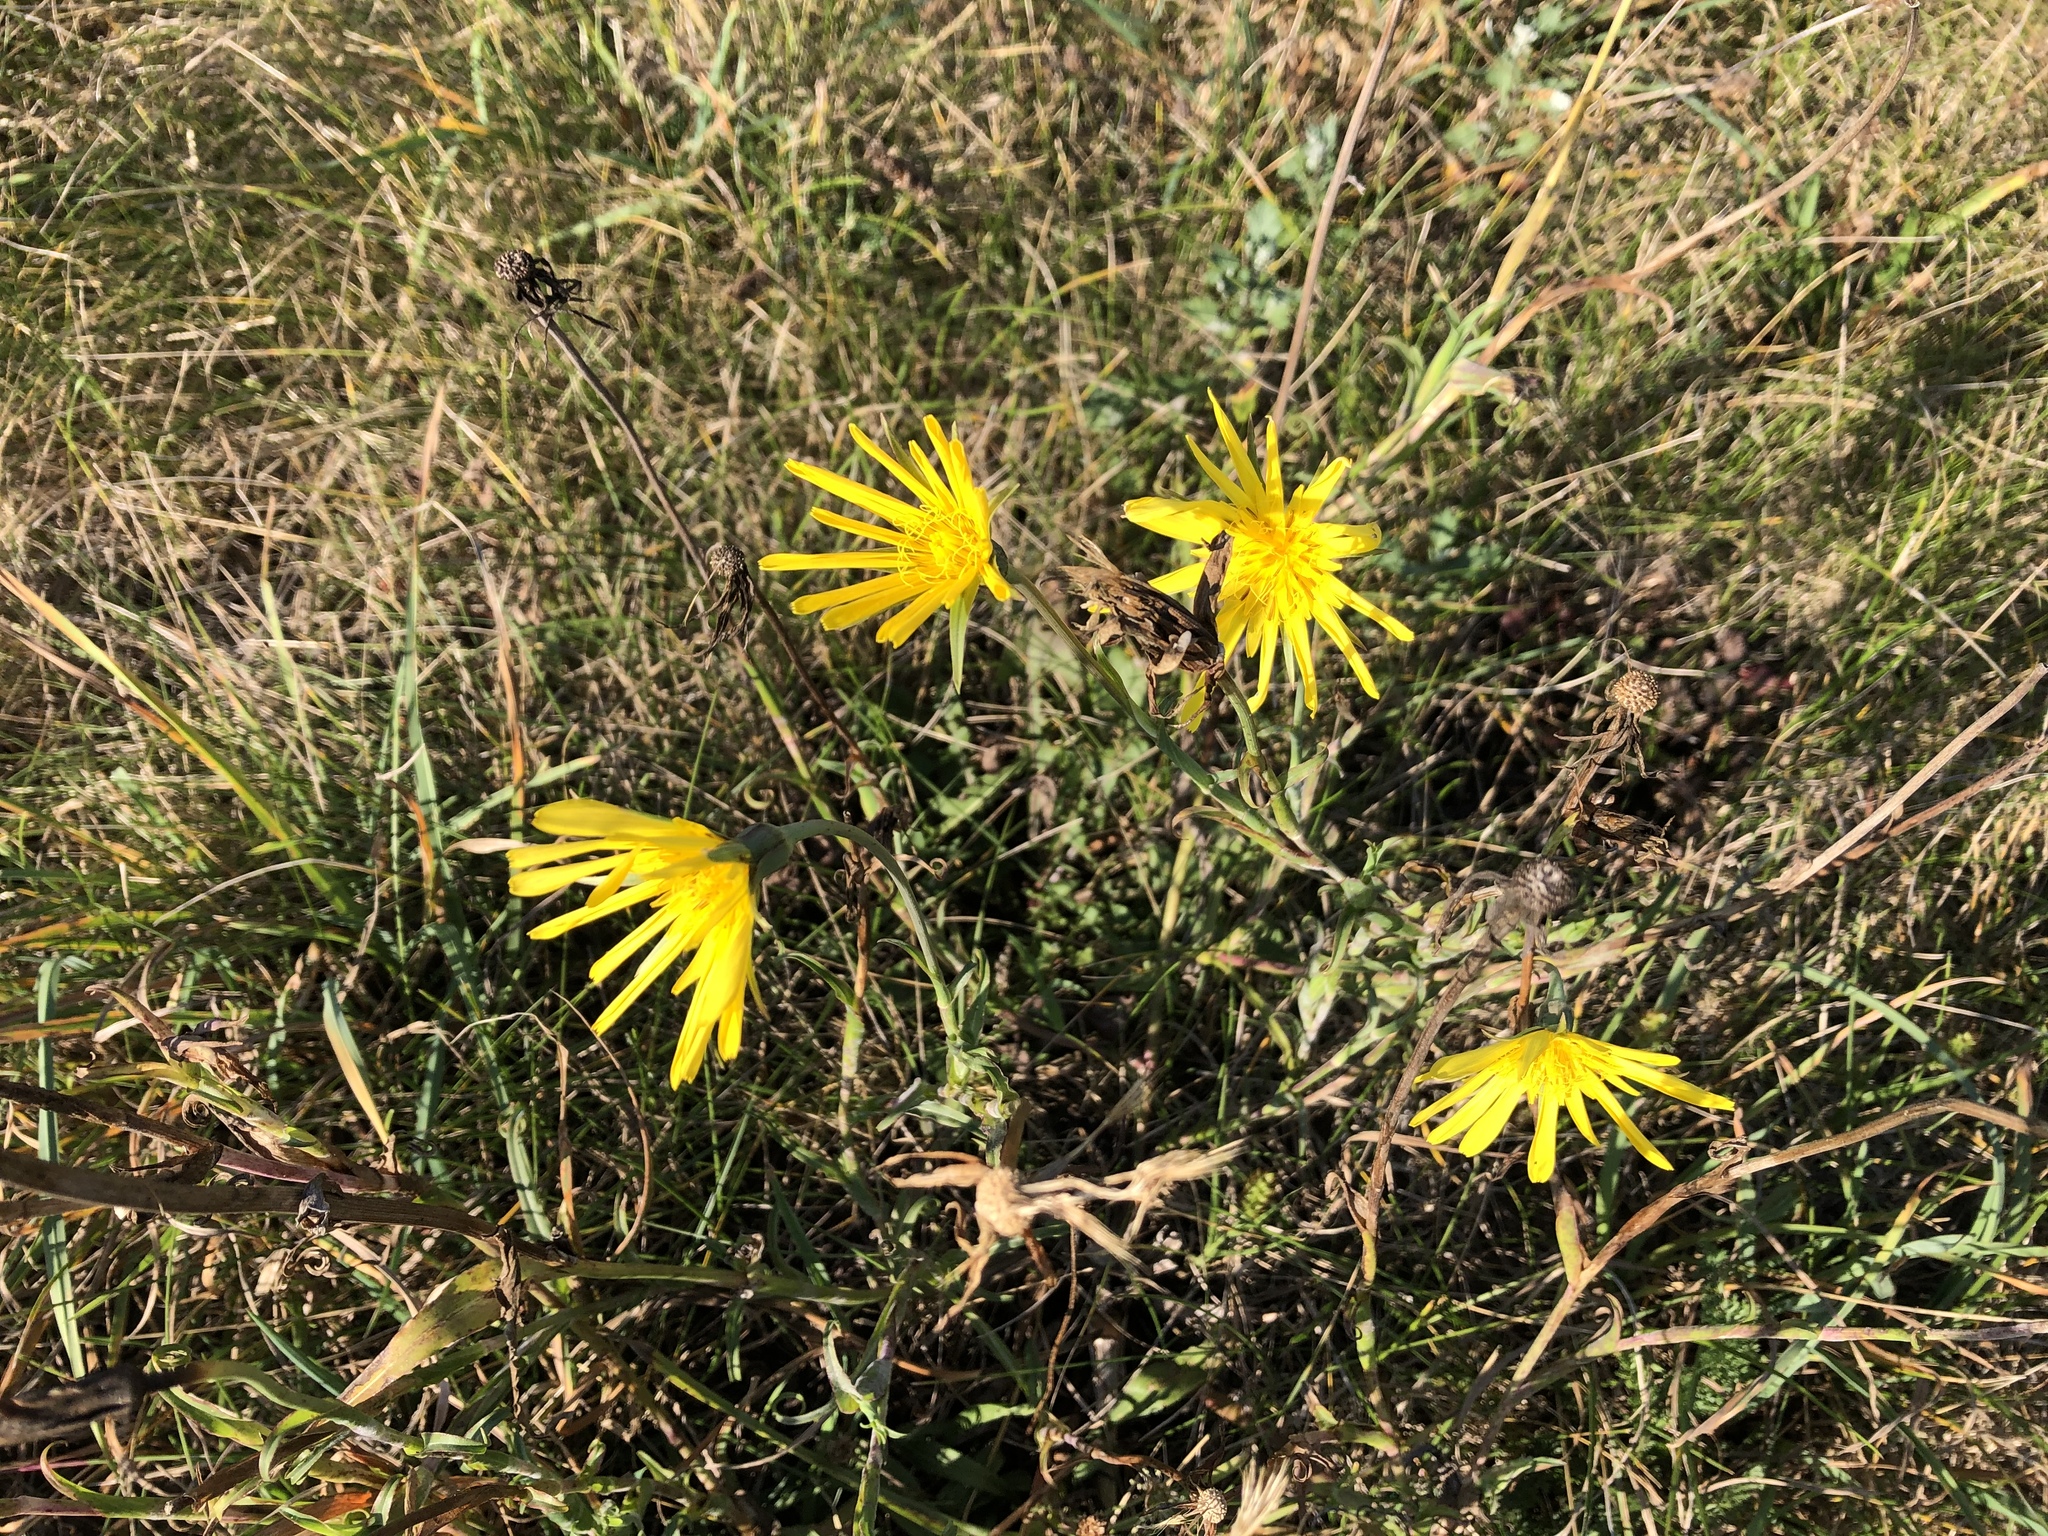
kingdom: Plantae
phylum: Tracheophyta
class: Magnoliopsida
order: Asterales
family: Asteraceae
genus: Tragopogon
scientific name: Tragopogon orientalis
